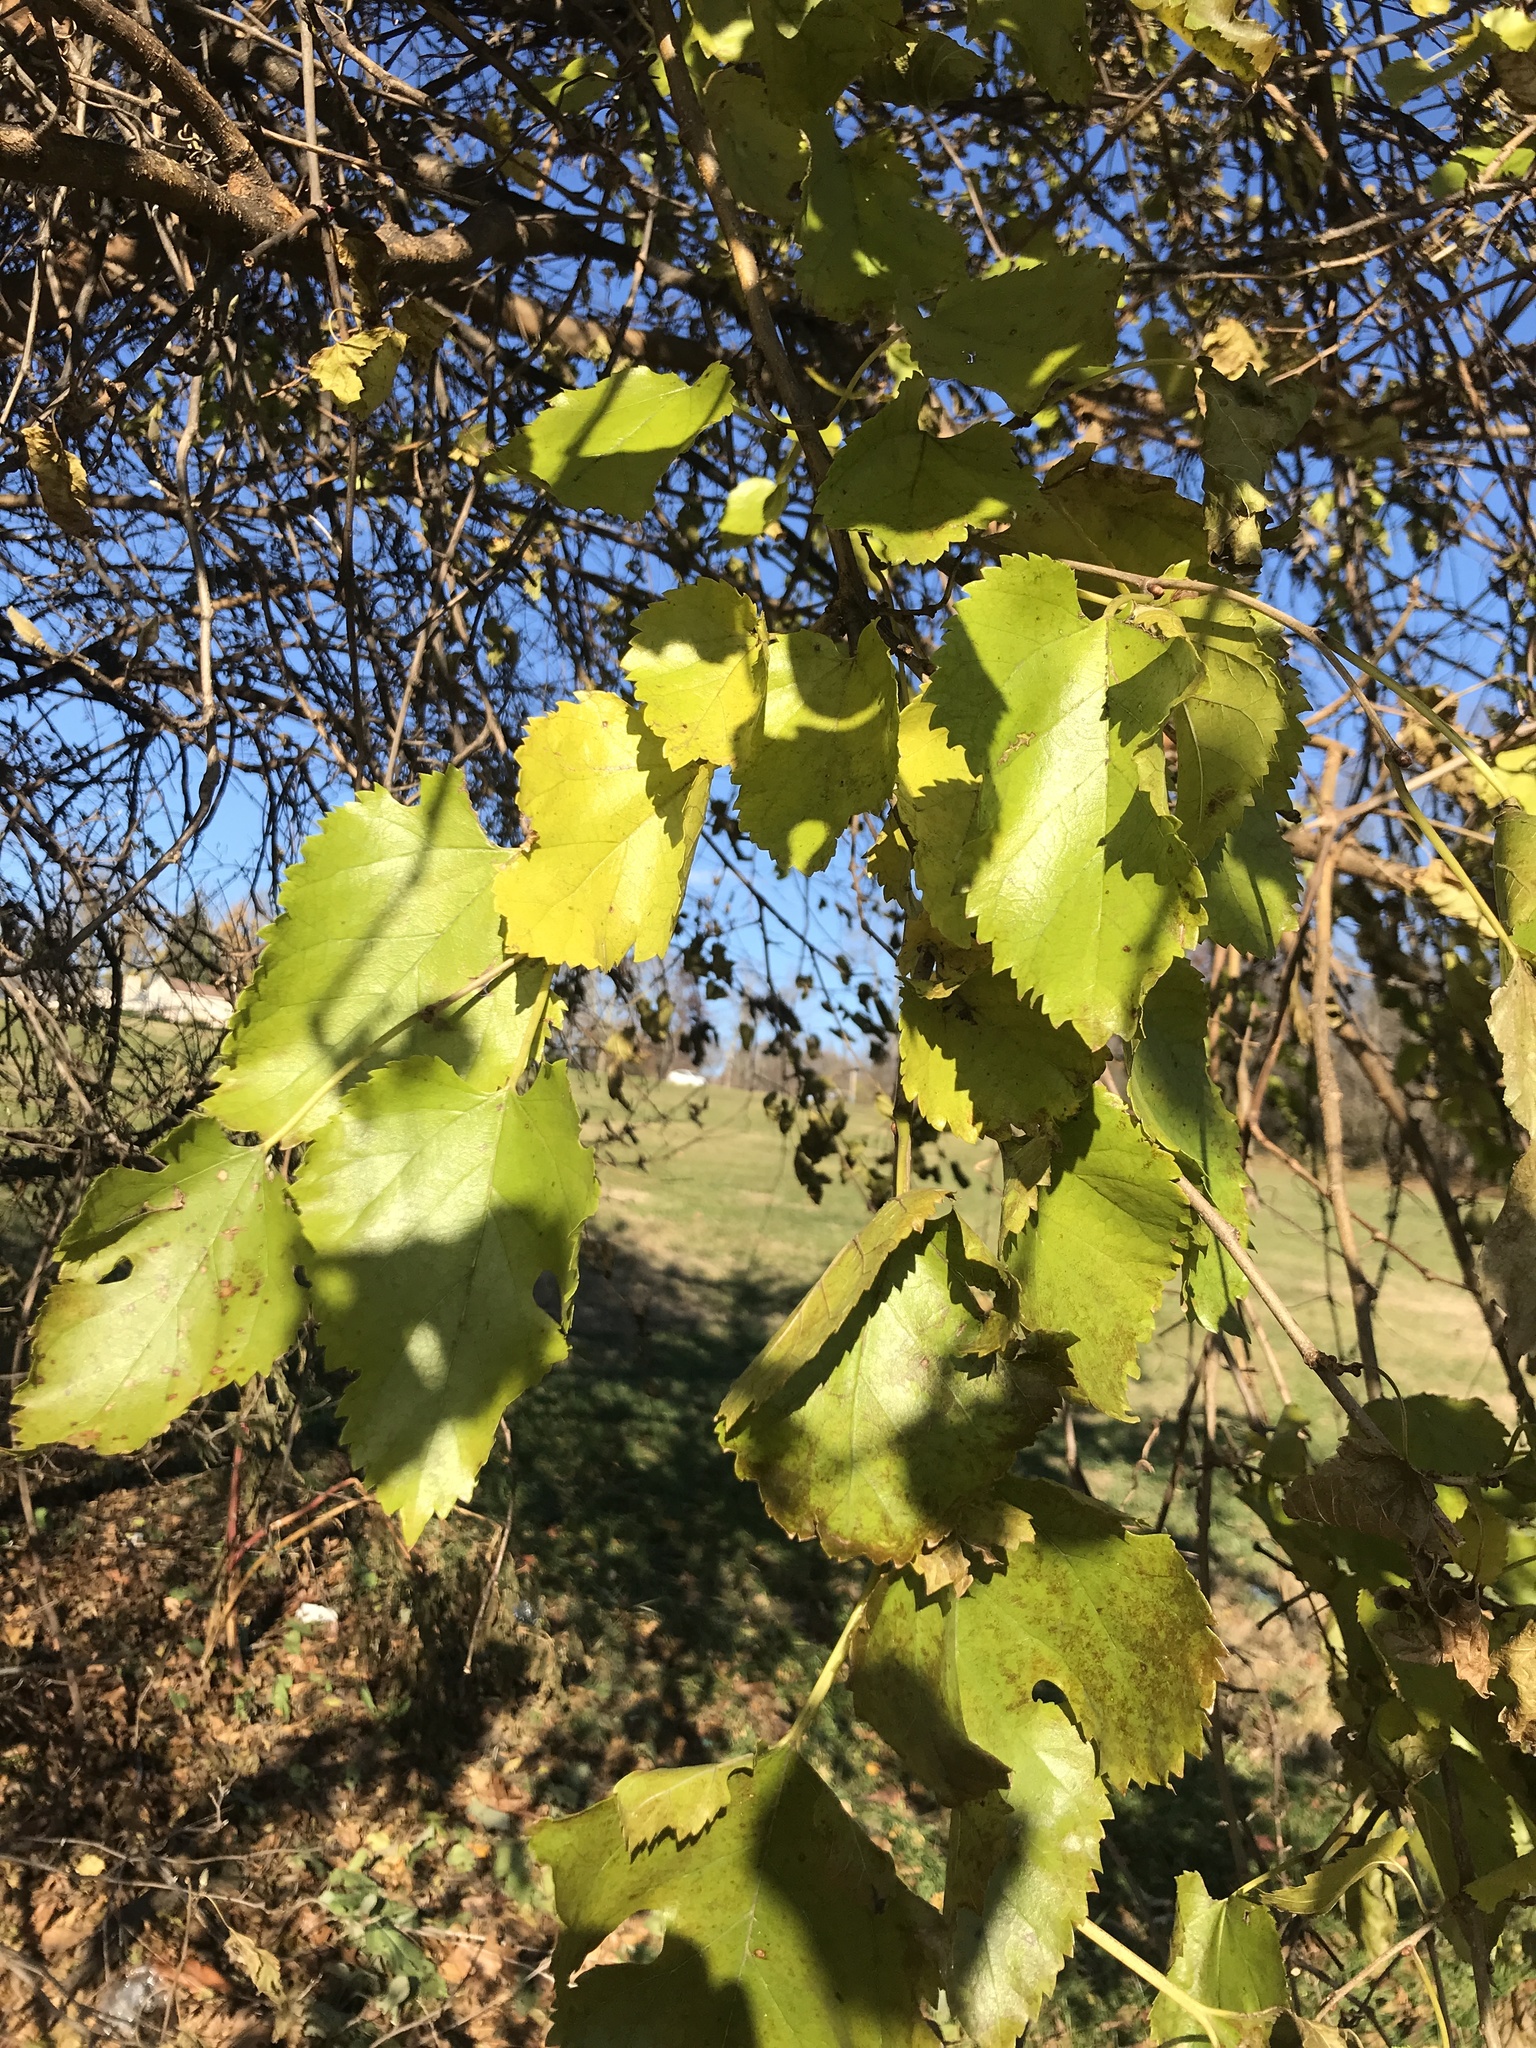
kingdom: Plantae
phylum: Tracheophyta
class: Magnoliopsida
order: Rosales
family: Moraceae
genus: Morus
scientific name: Morus alba
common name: White mulberry
